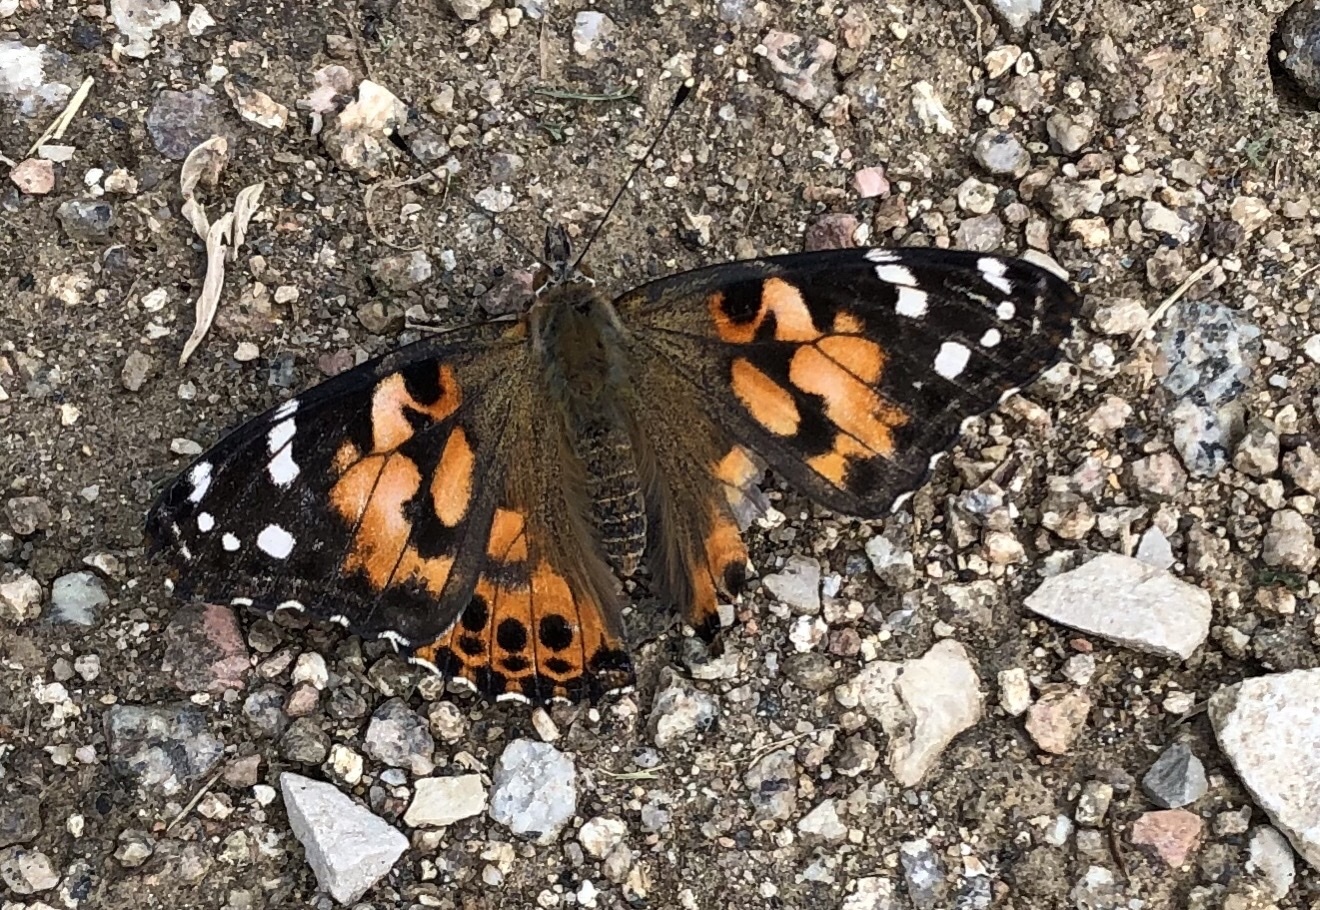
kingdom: Animalia
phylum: Arthropoda
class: Insecta
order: Lepidoptera
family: Nymphalidae
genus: Vanessa
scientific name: Vanessa cardui
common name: Painted lady
